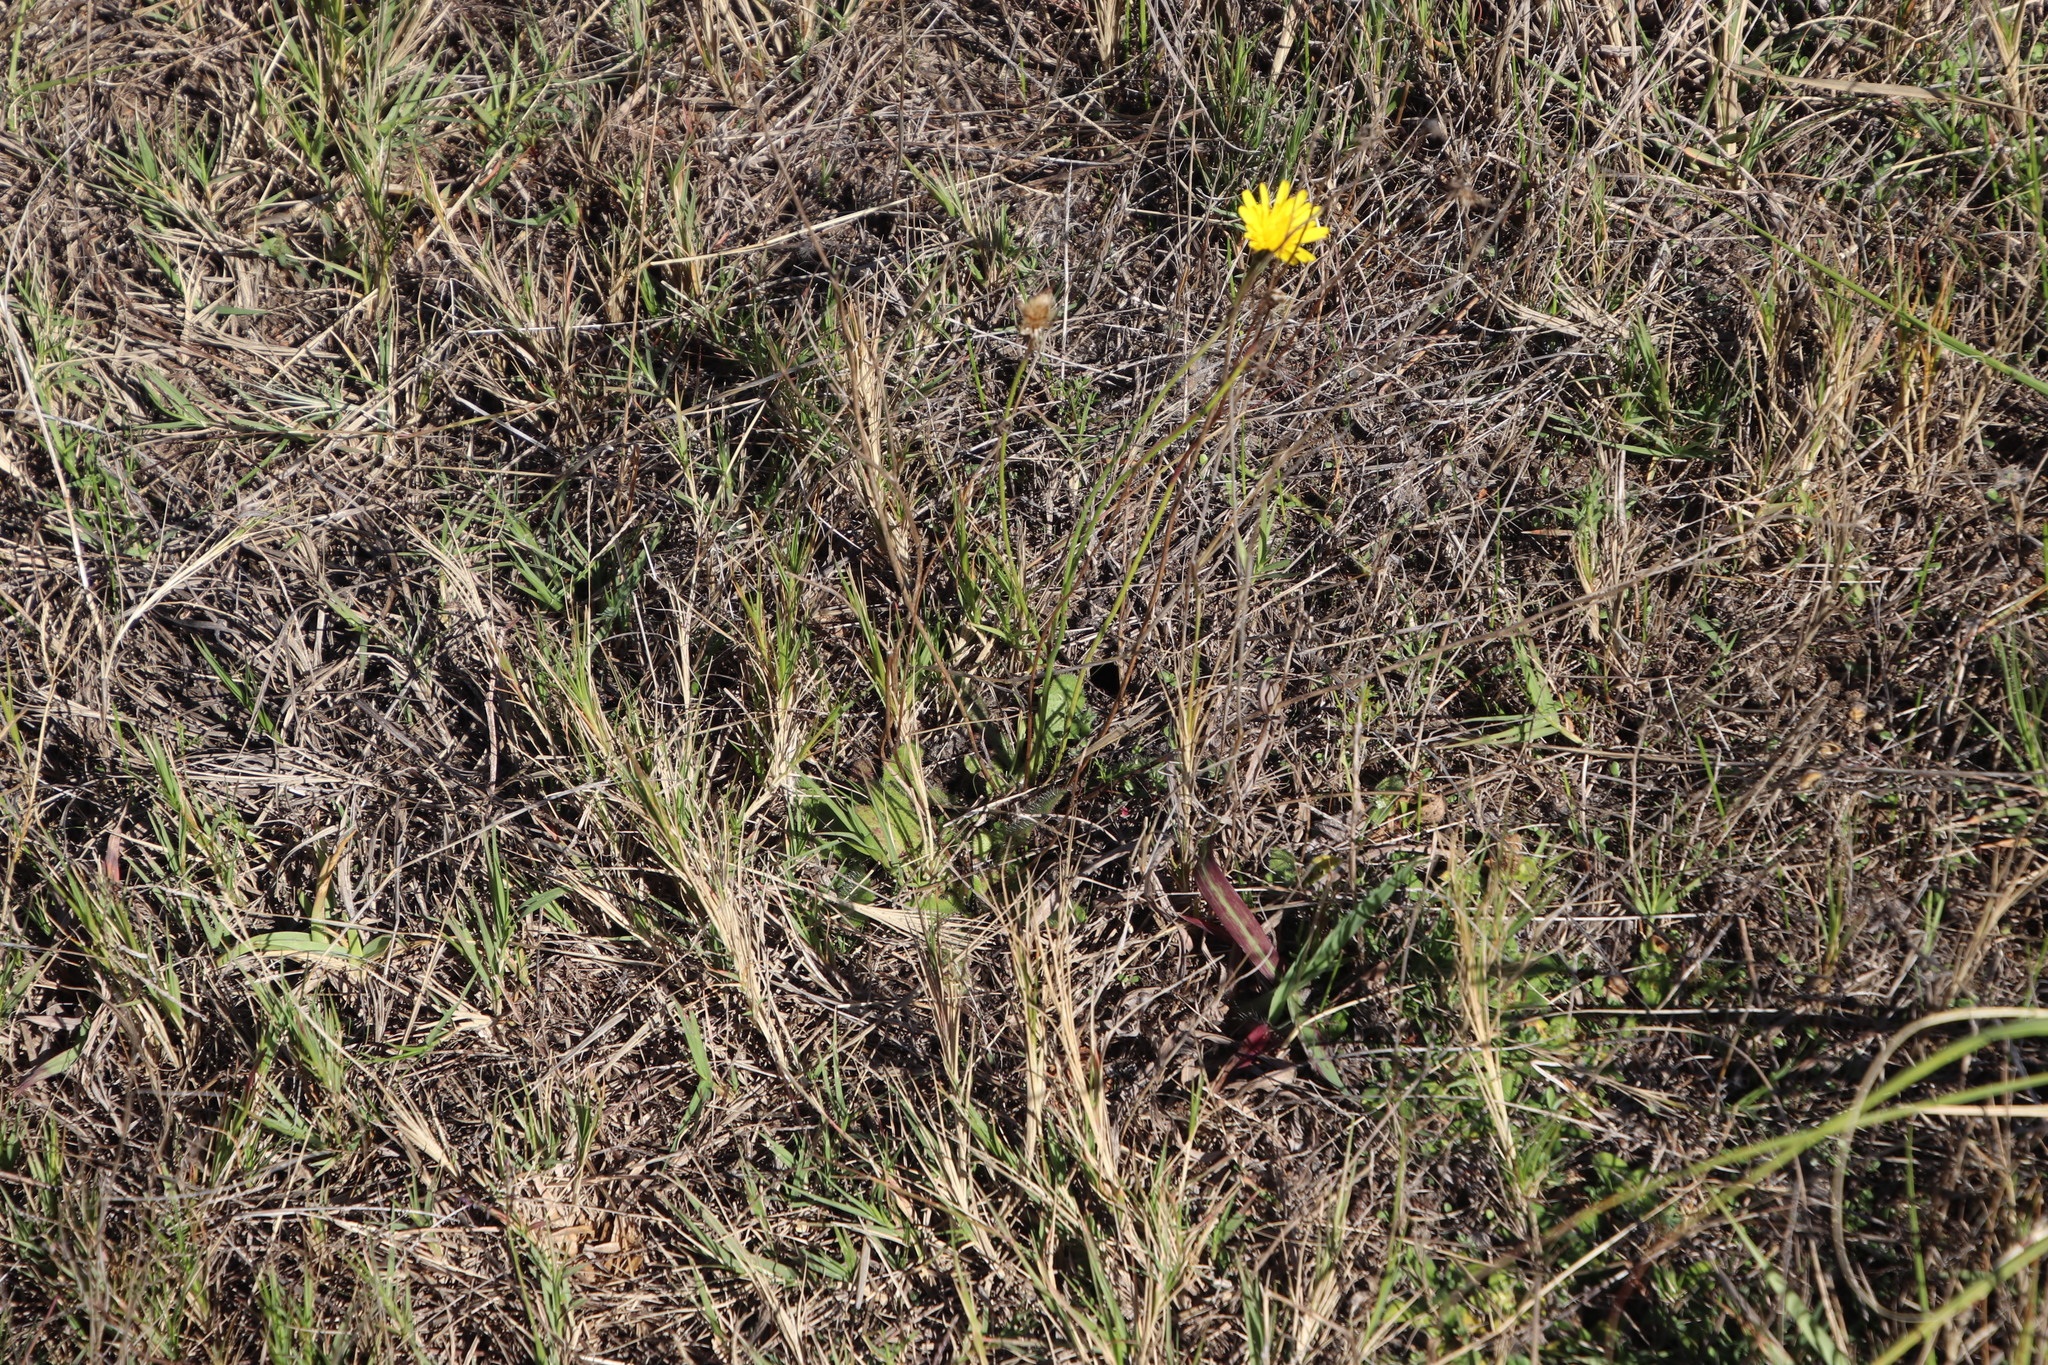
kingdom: Plantae
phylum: Tracheophyta
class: Magnoliopsida
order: Asterales
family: Asteraceae
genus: Hypochaeris
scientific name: Hypochaeris radicata
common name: Flatweed
